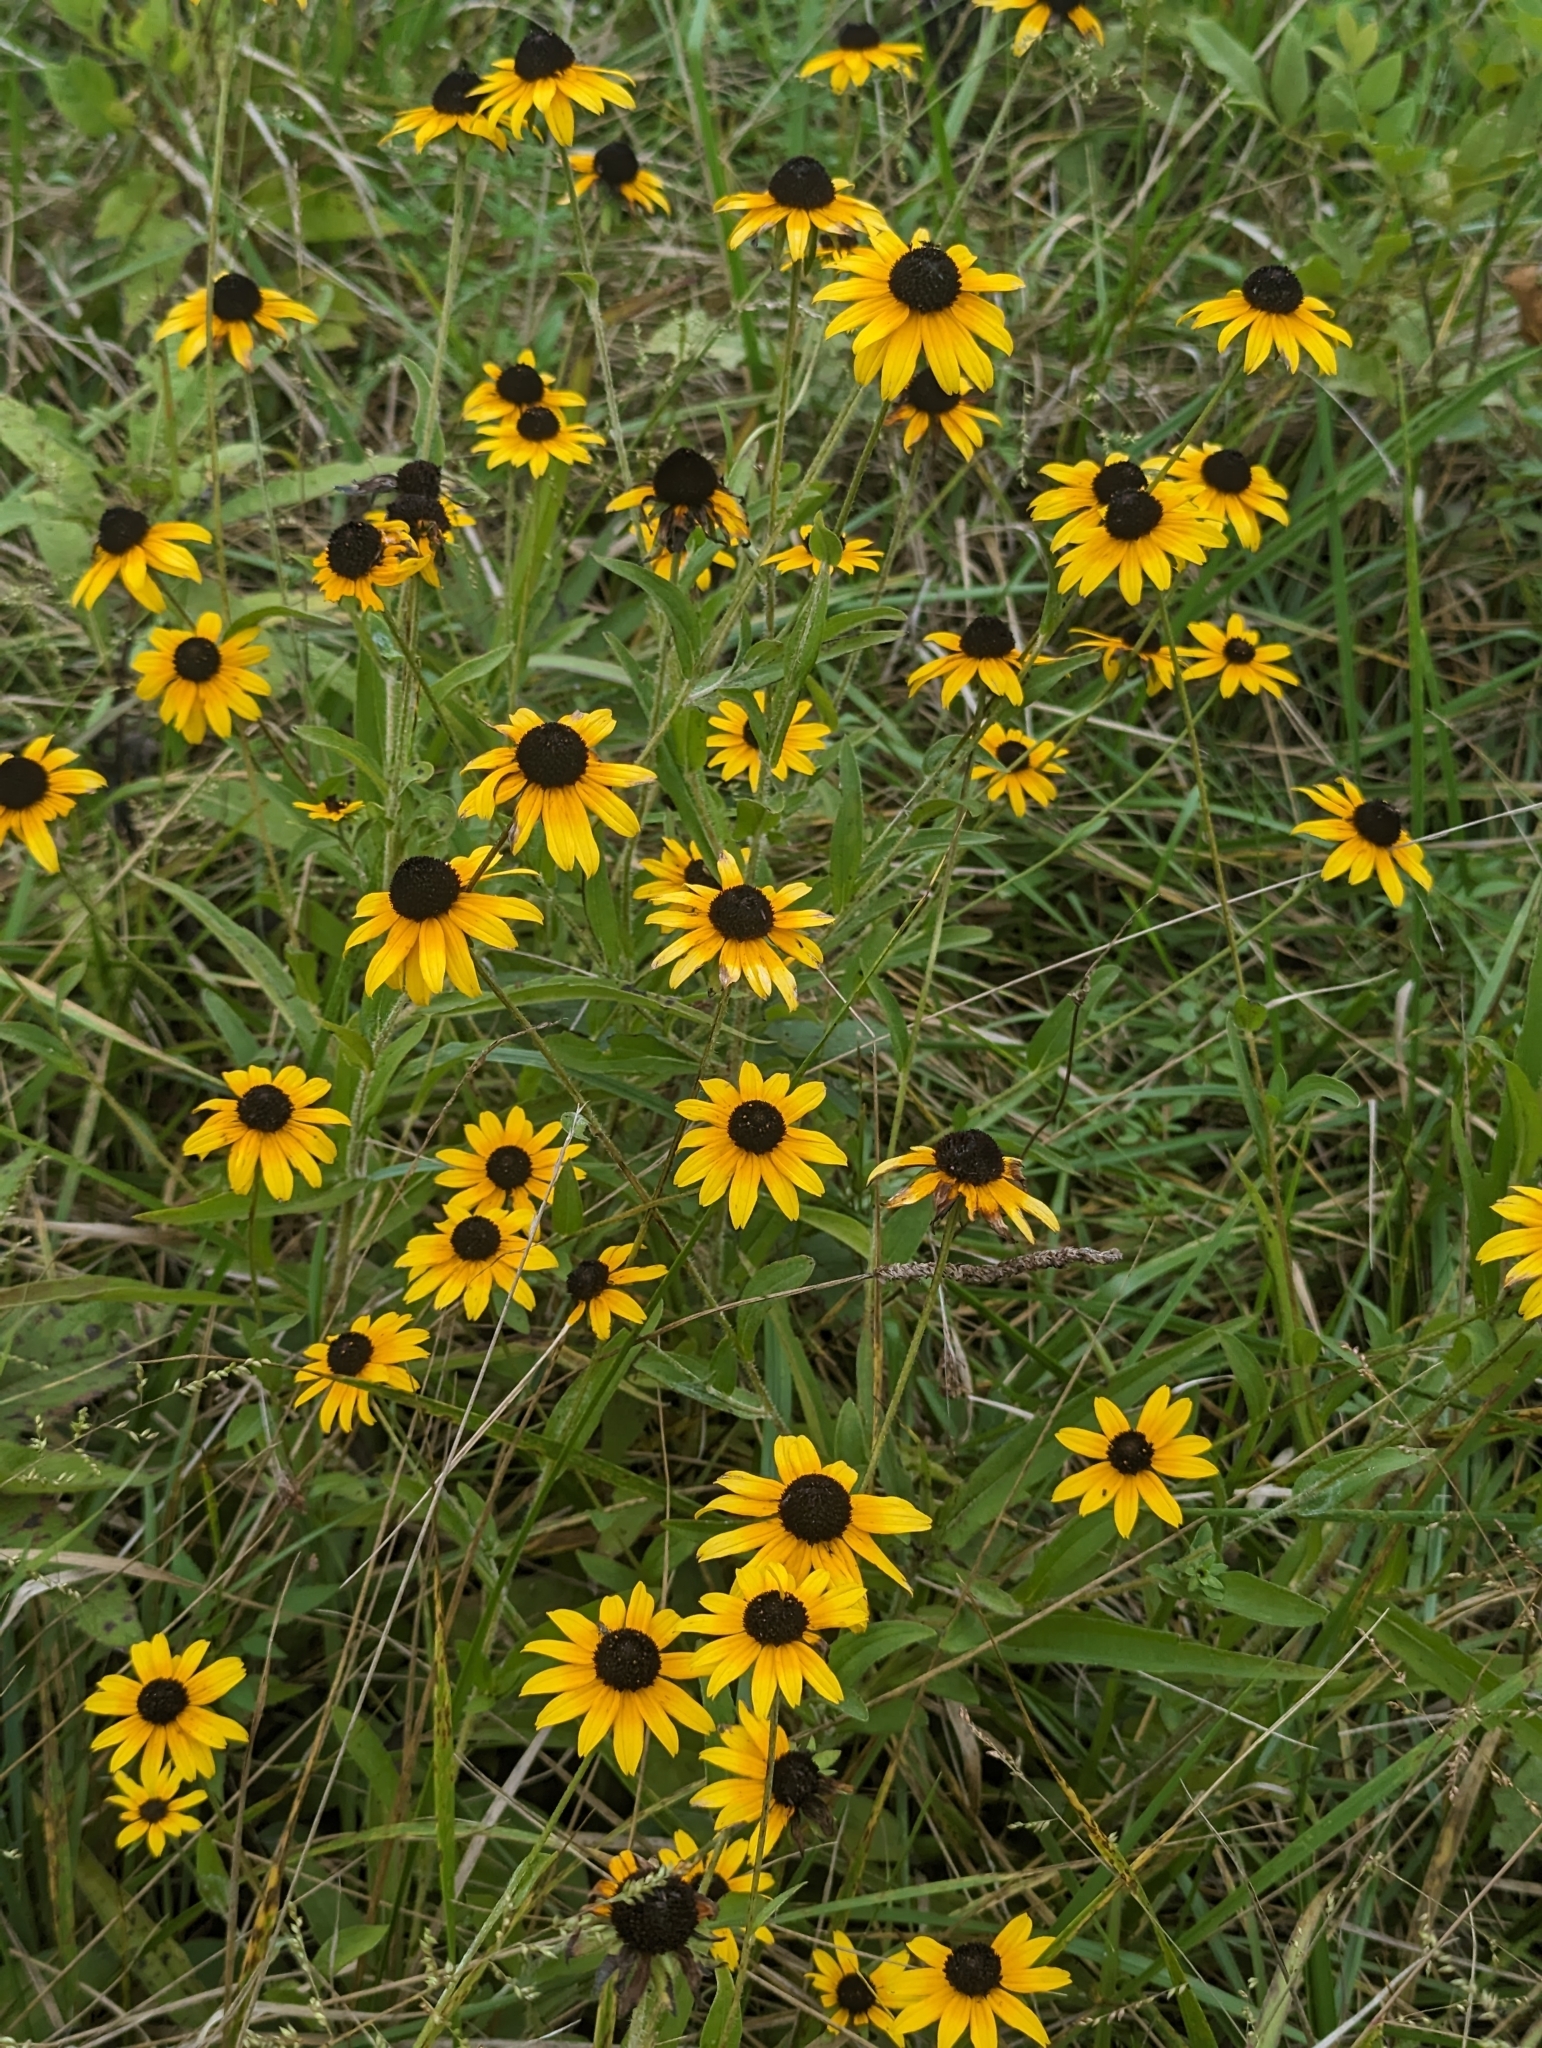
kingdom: Plantae
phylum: Tracheophyta
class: Magnoliopsida
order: Asterales
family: Asteraceae
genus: Rudbeckia
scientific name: Rudbeckia hirta
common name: Black-eyed-susan
